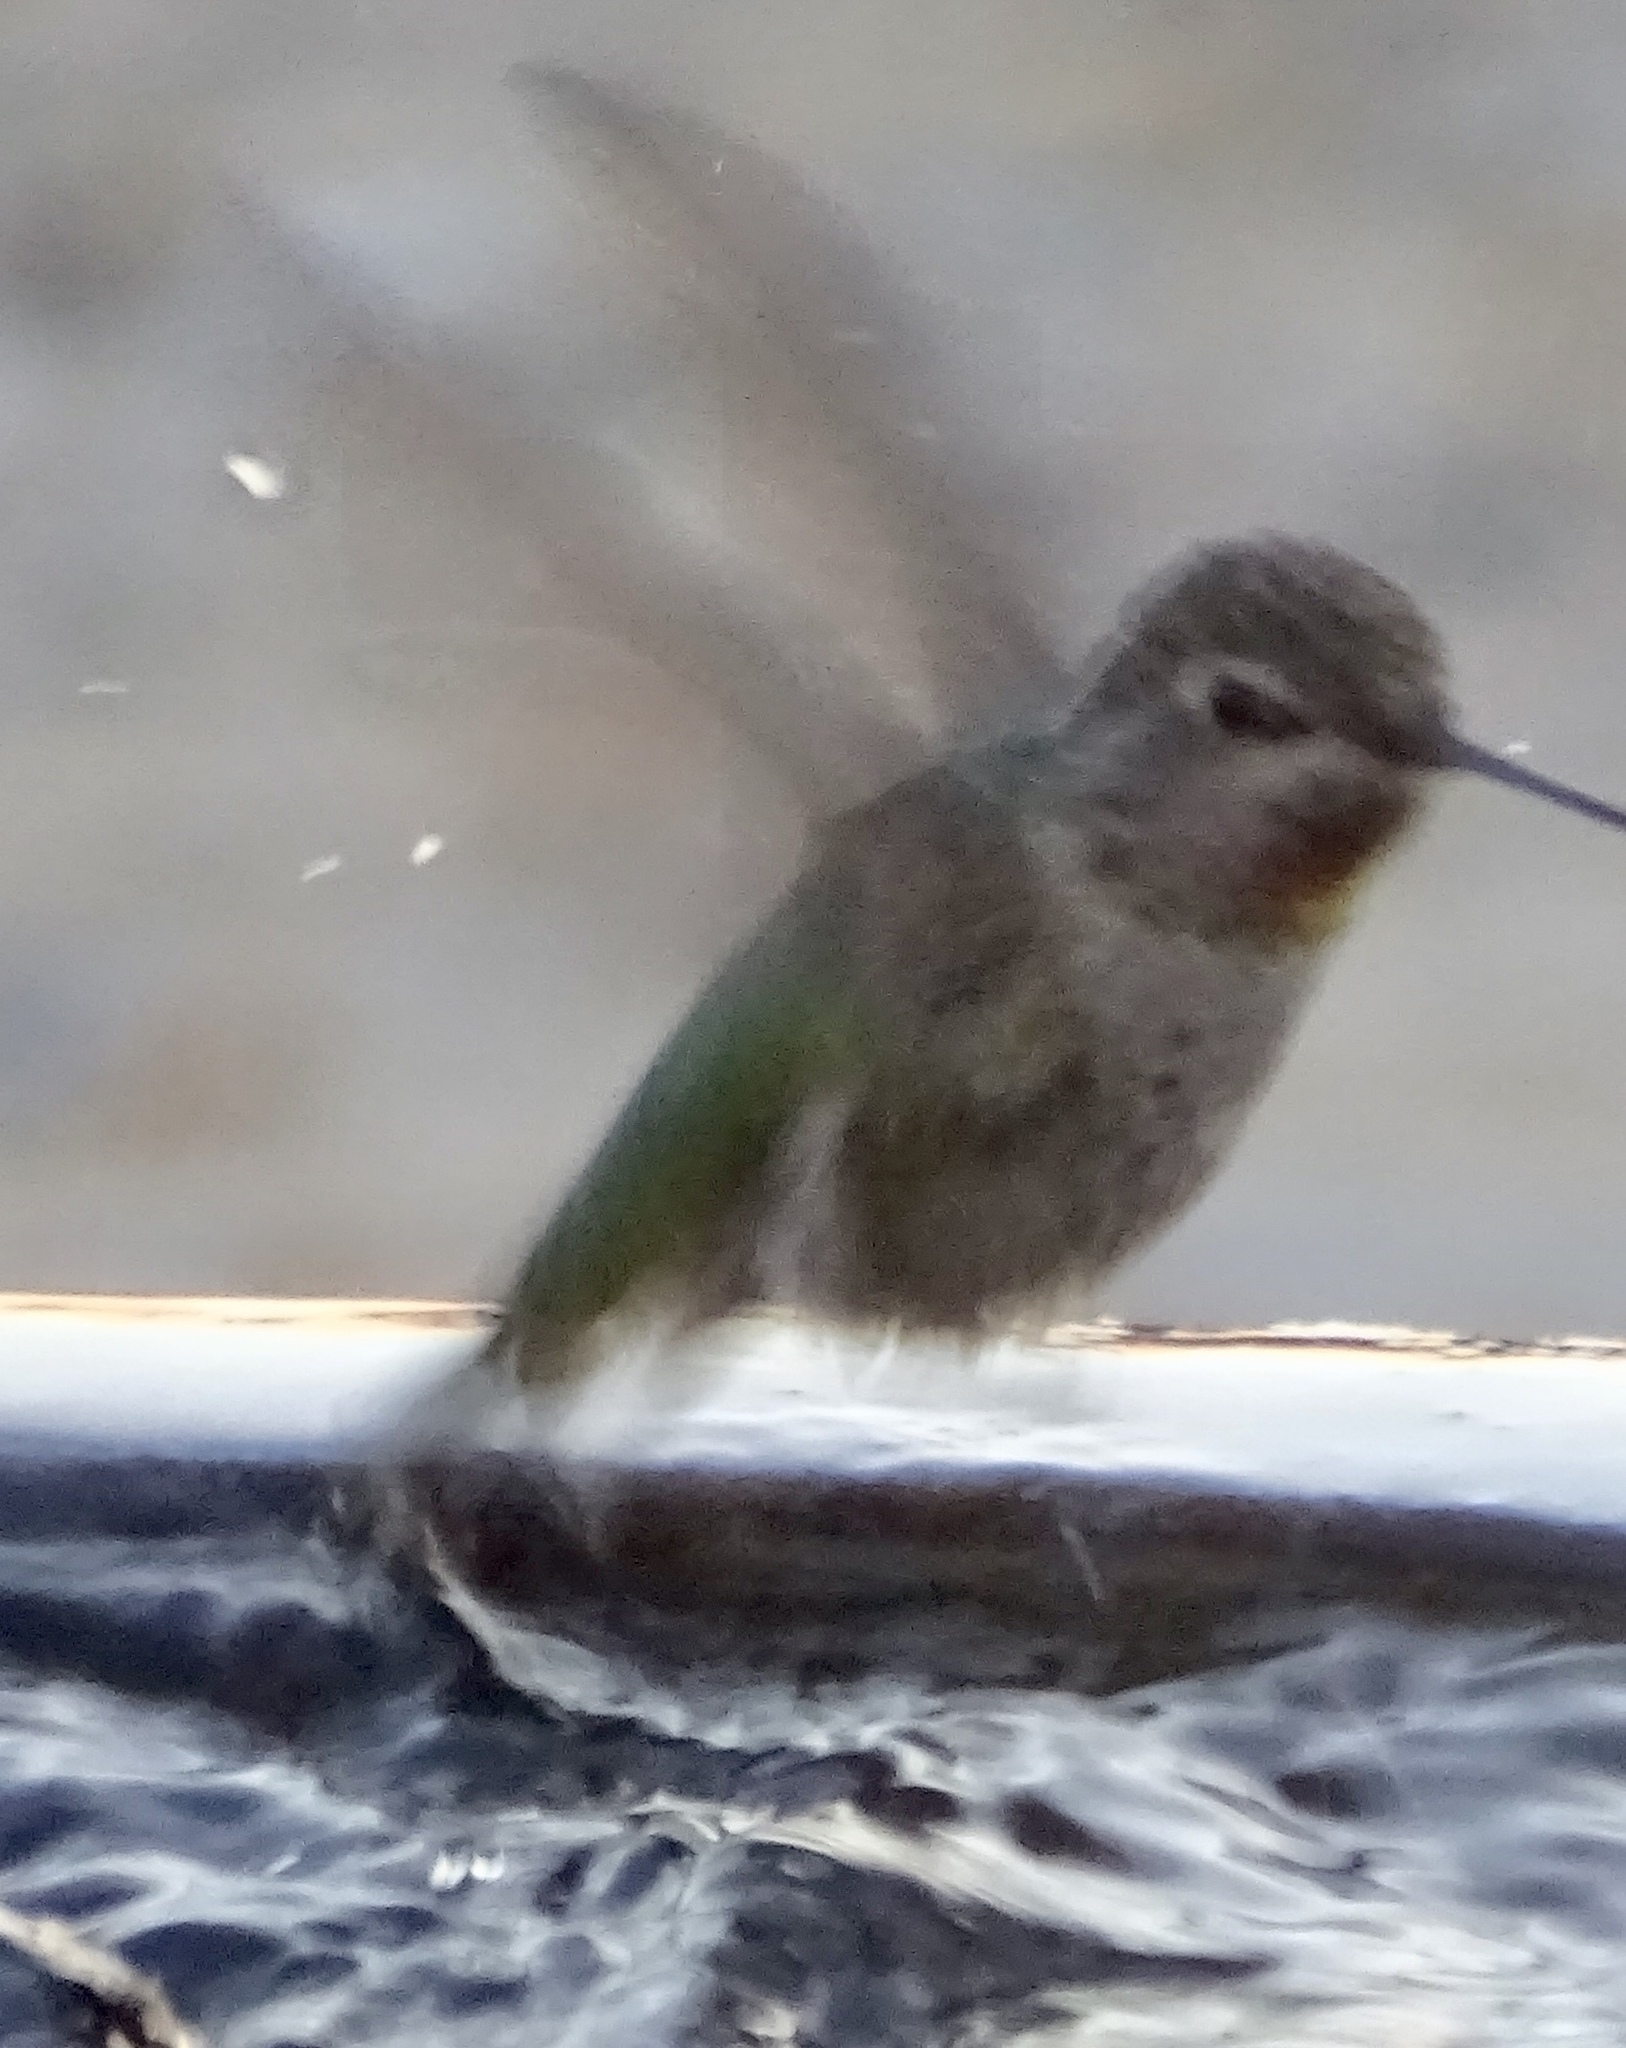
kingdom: Animalia
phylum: Chordata
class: Aves
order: Apodiformes
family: Trochilidae
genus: Calypte
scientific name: Calypte anna
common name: Anna's hummingbird
